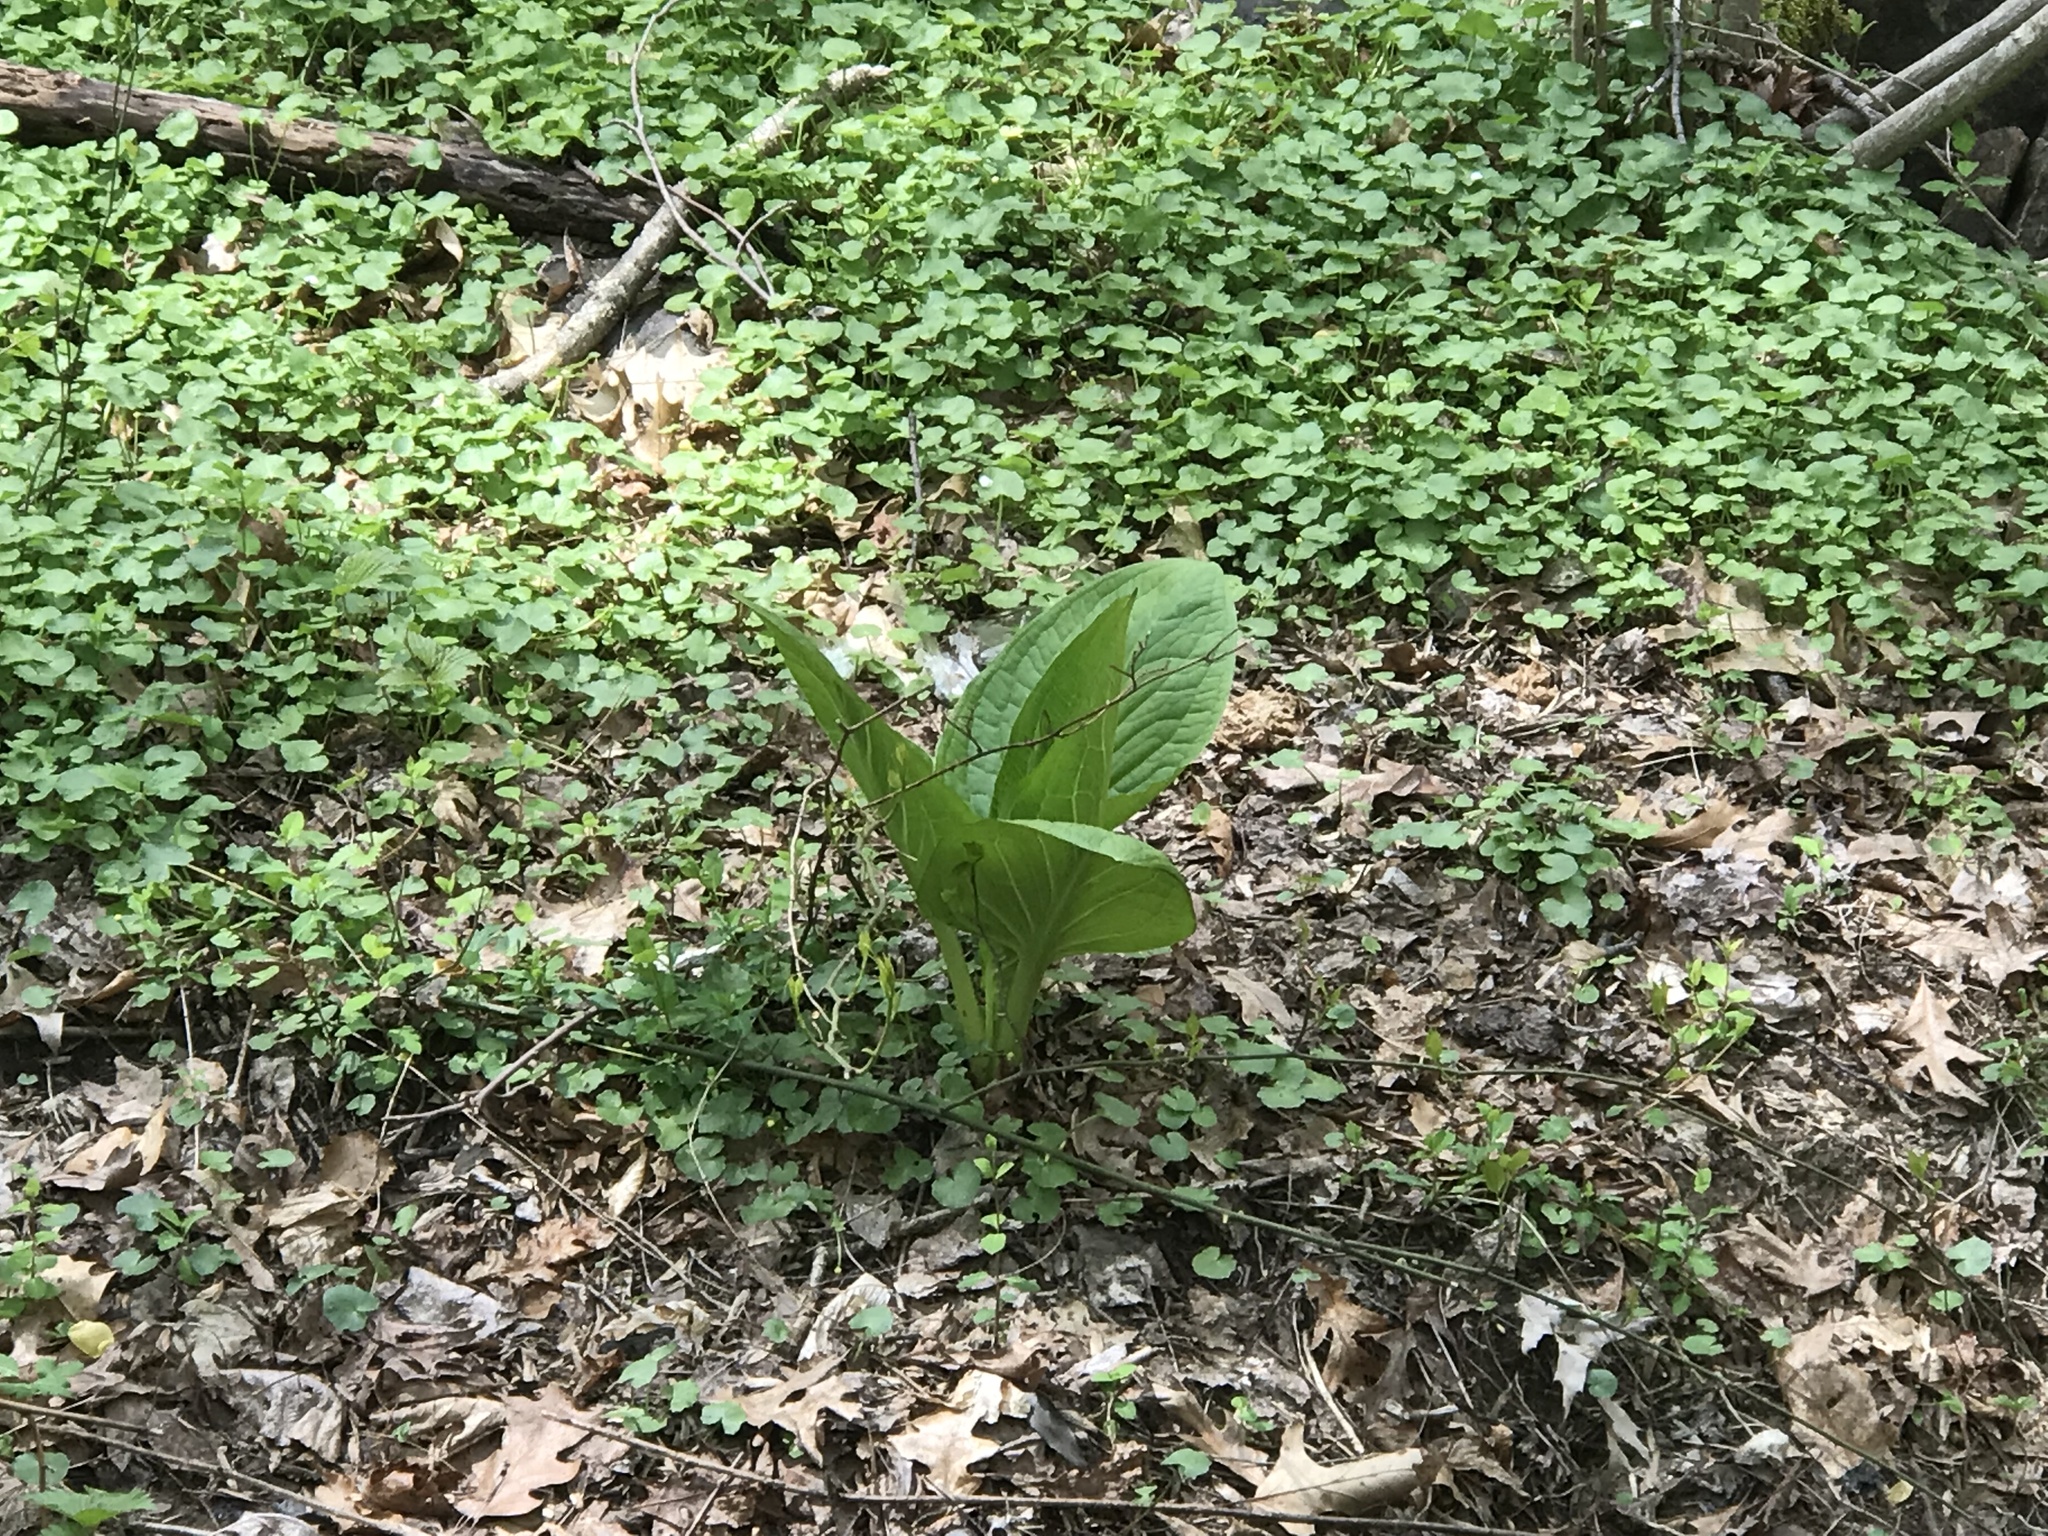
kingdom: Plantae
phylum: Tracheophyta
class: Liliopsida
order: Alismatales
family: Araceae
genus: Symplocarpus
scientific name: Symplocarpus foetidus
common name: Eastern skunk cabbage
